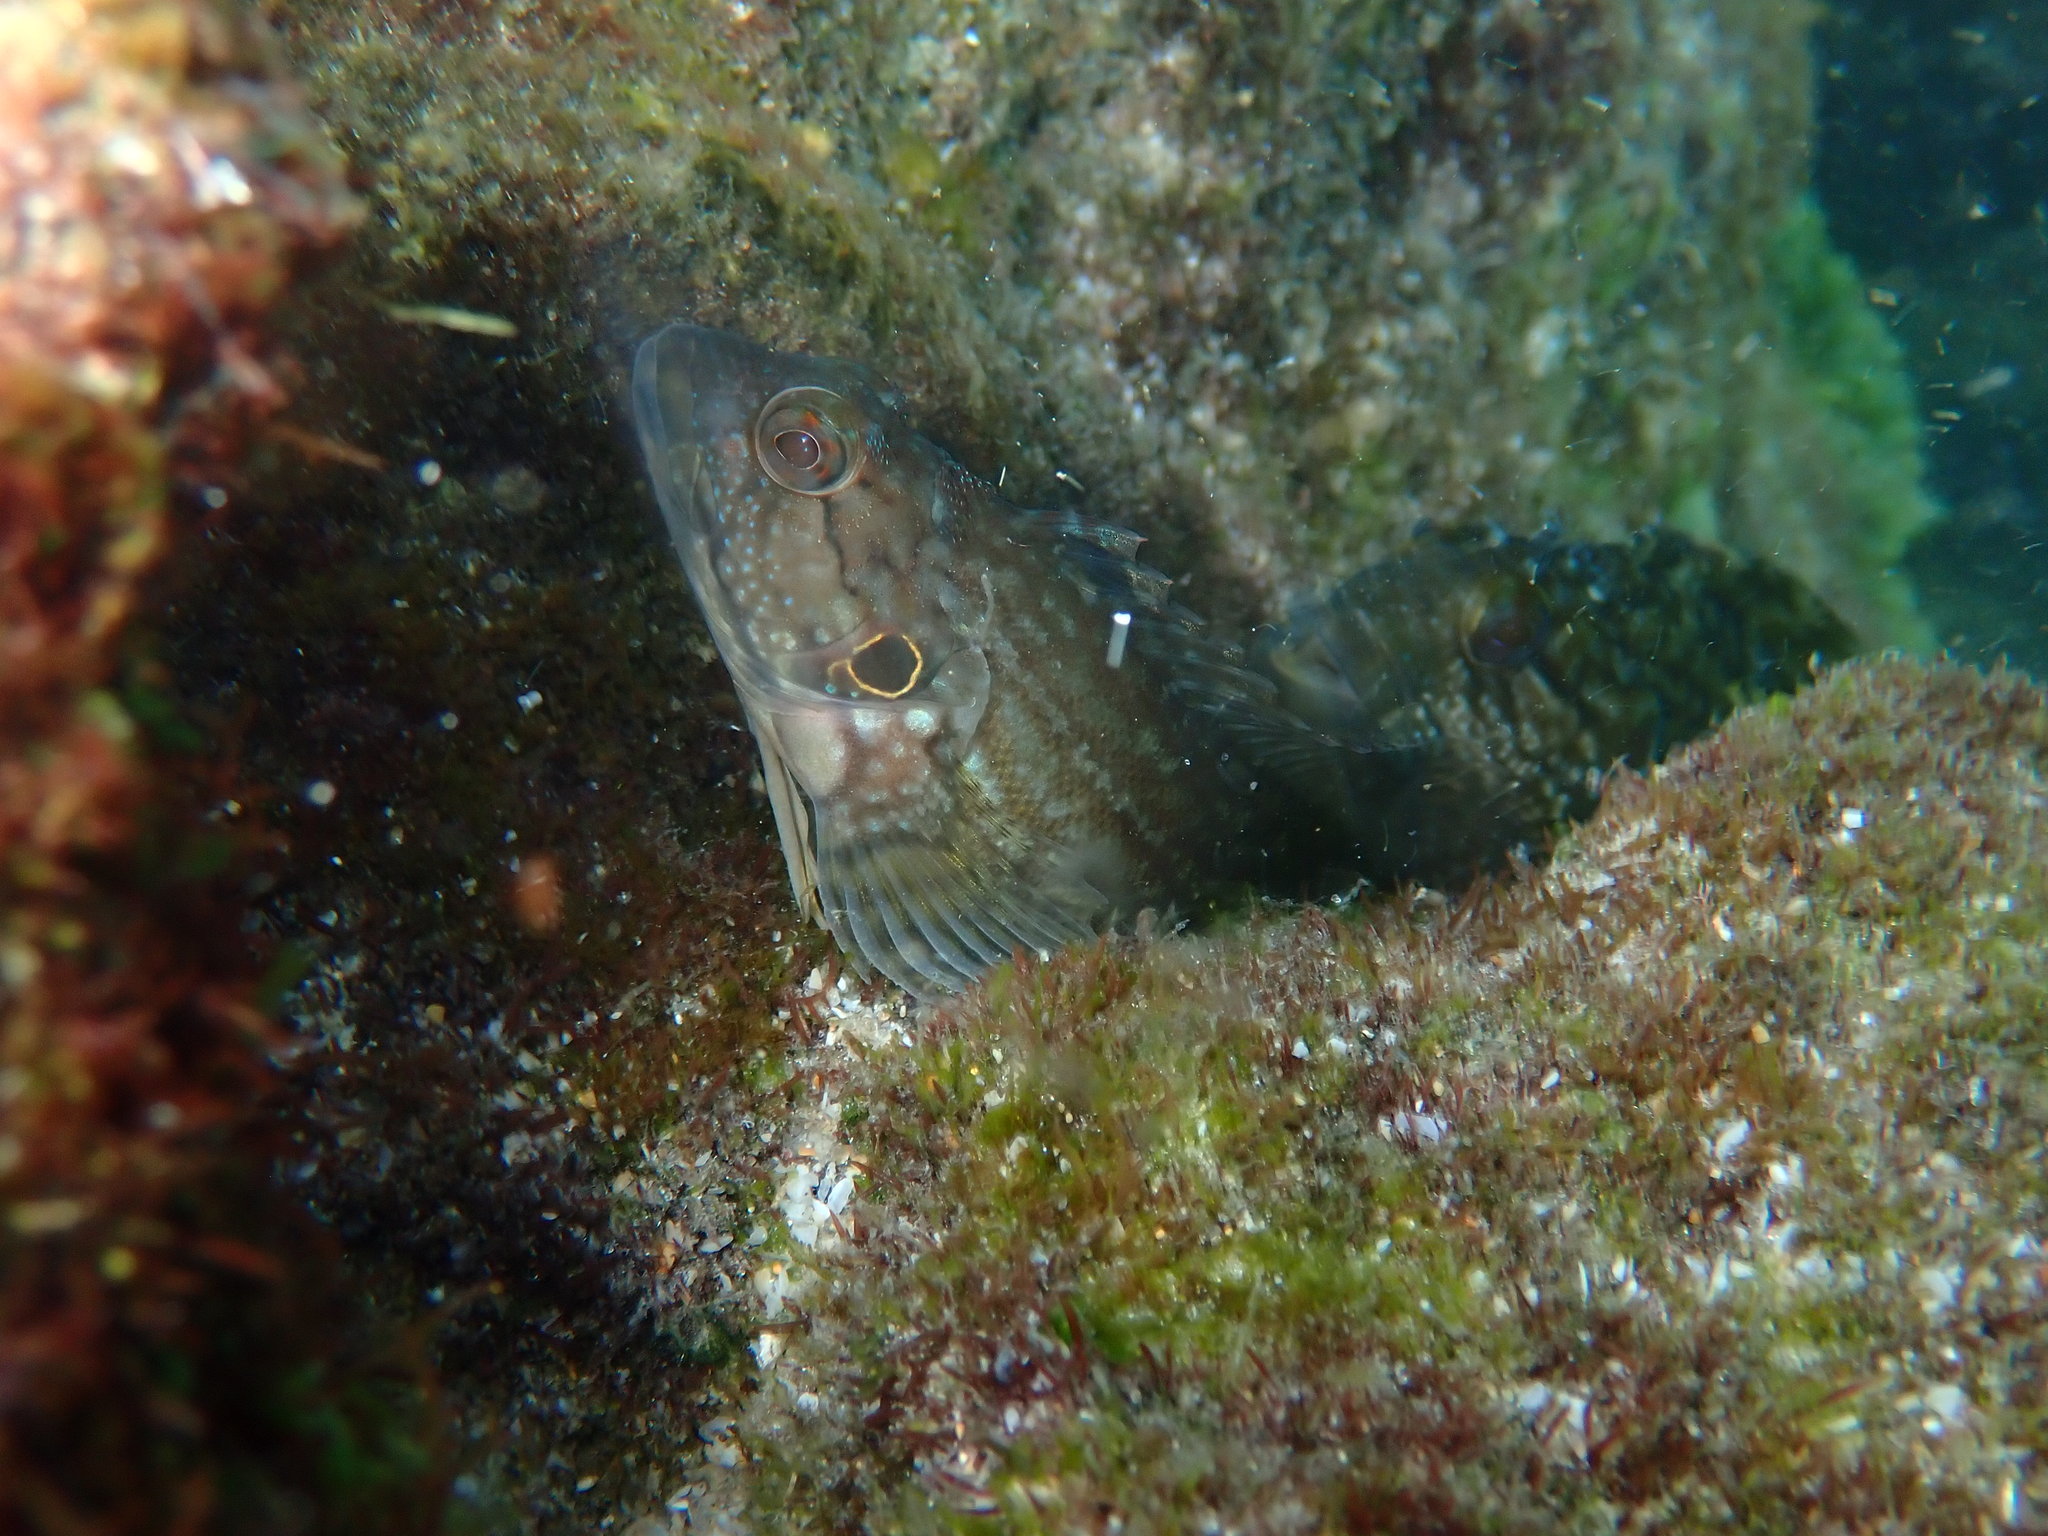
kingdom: Animalia
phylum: Chordata
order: Perciformes
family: Labrisomidae
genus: Labrisomus
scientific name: Labrisomus conditus
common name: Masquerader hairy blenny
